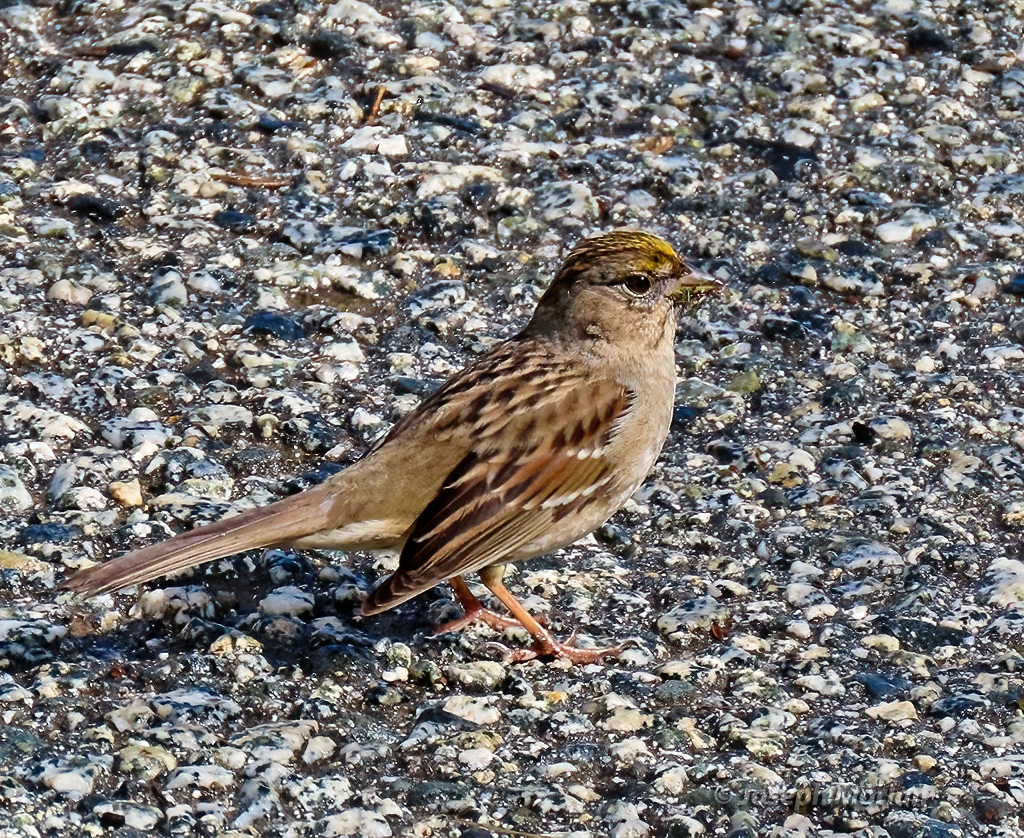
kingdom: Animalia
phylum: Chordata
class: Aves
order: Passeriformes
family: Passerellidae
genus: Zonotrichia
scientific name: Zonotrichia atricapilla
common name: Golden-crowned sparrow
